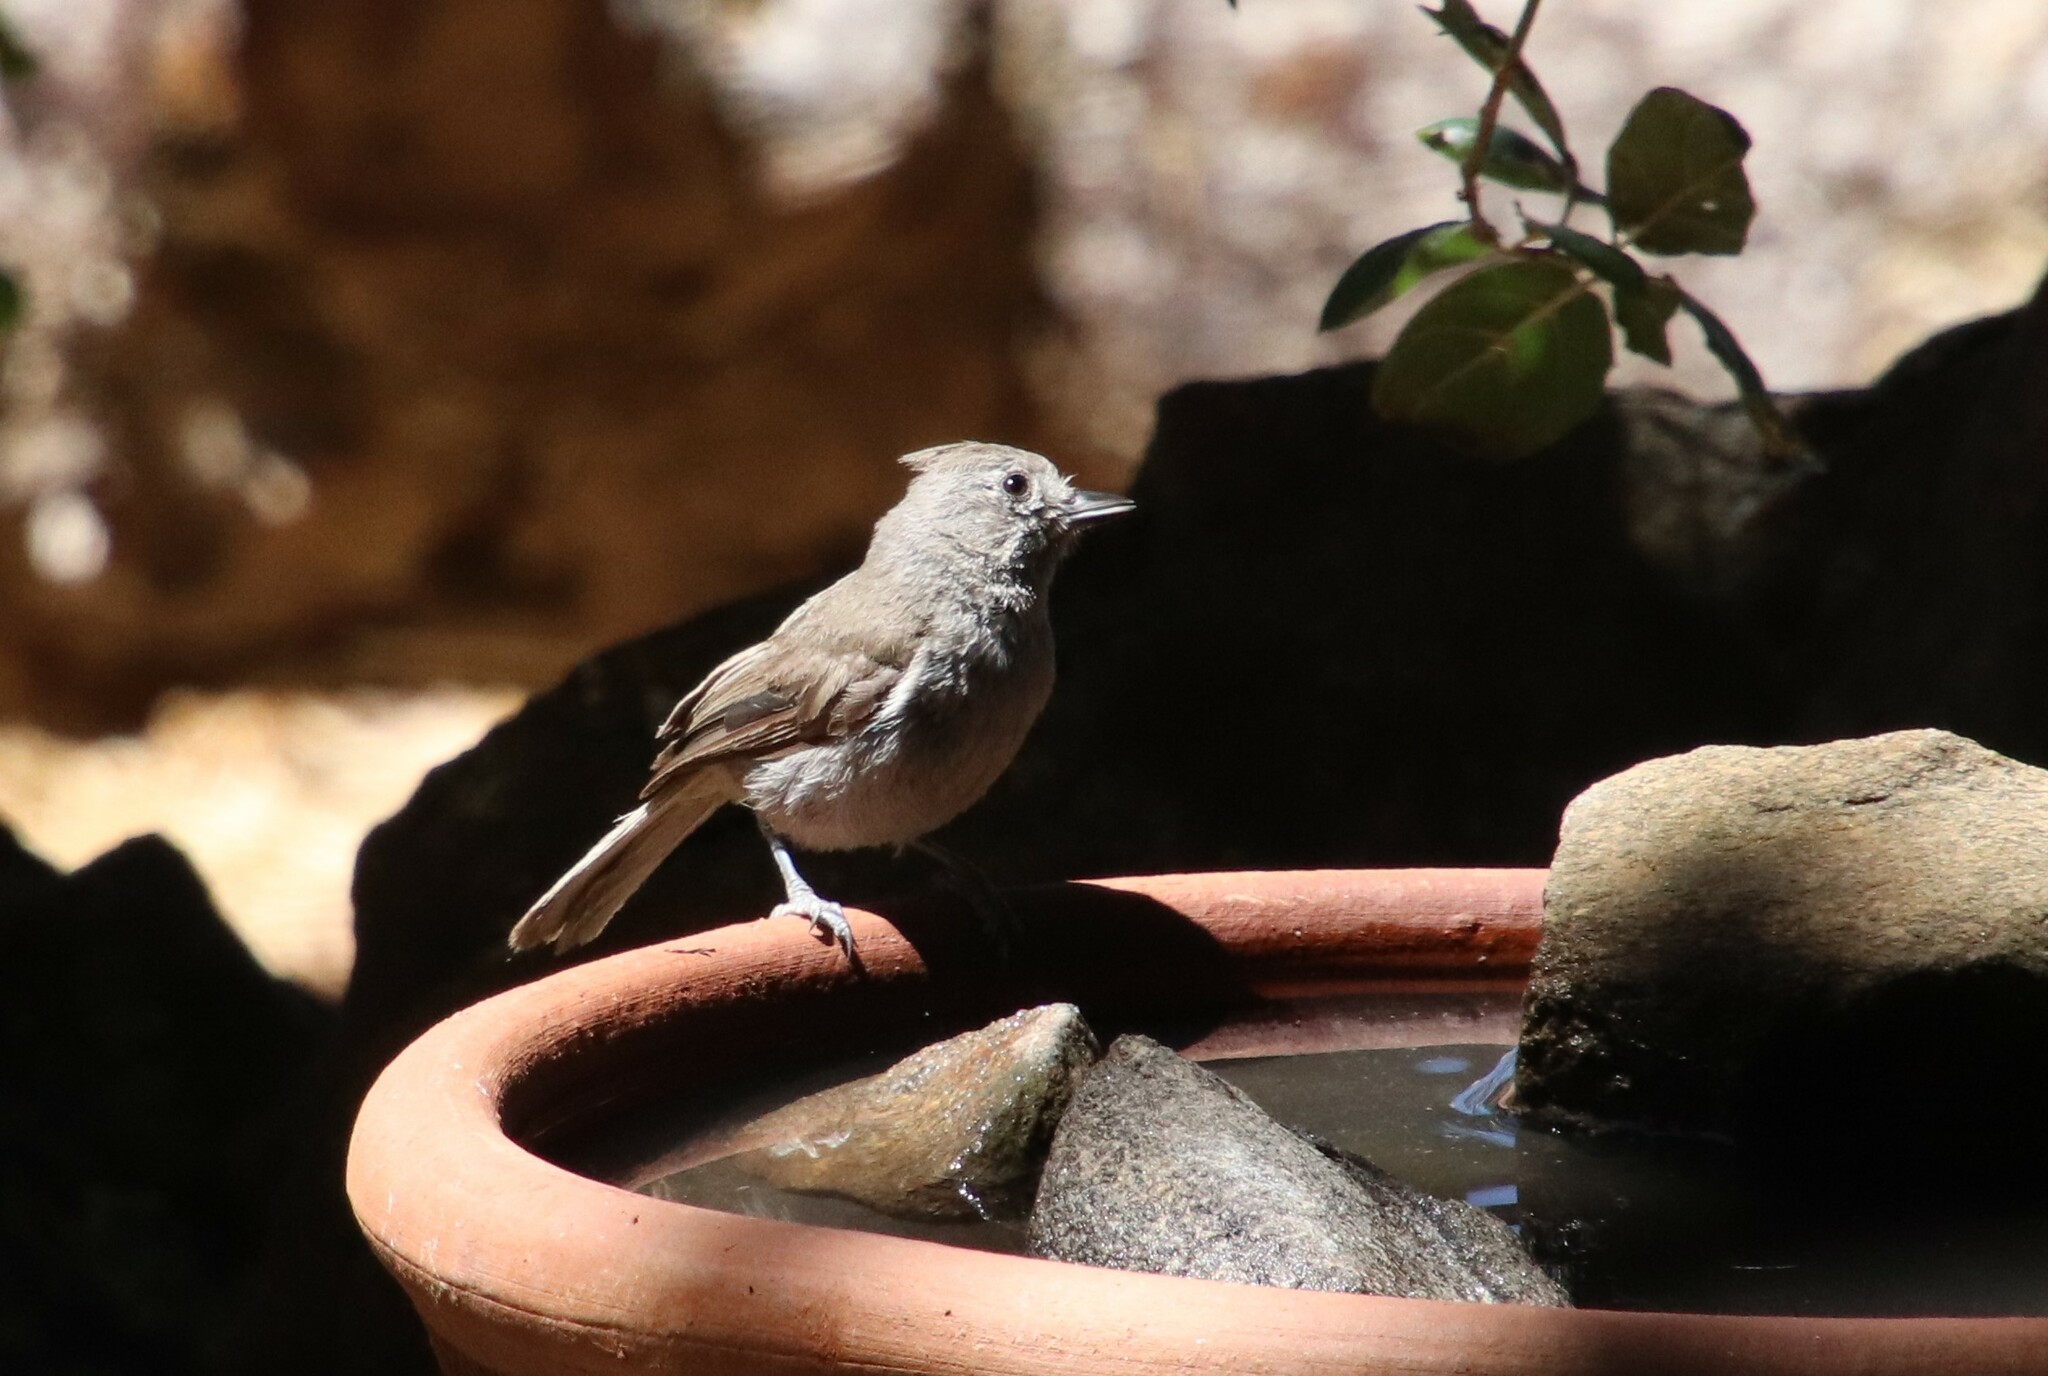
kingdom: Animalia
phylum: Chordata
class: Aves
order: Passeriformes
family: Paridae
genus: Baeolophus
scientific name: Baeolophus inornatus
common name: Oak titmouse
